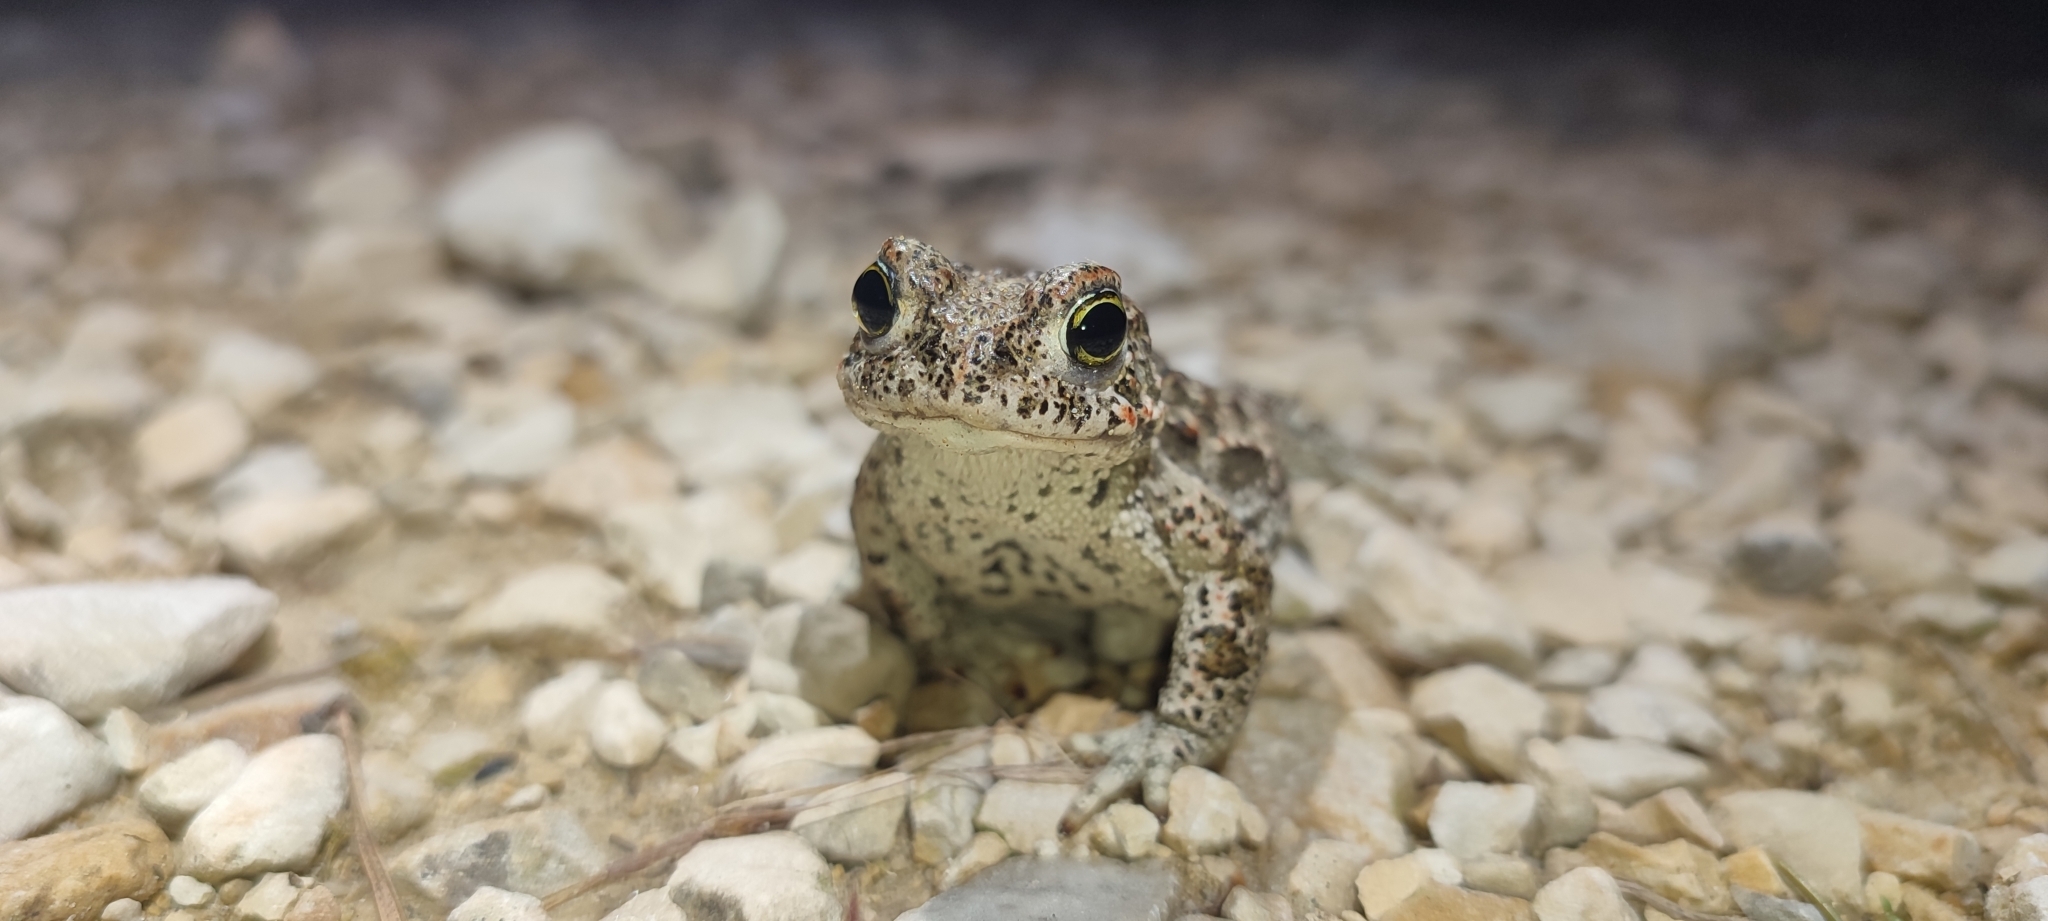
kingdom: Animalia
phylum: Chordata
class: Amphibia
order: Anura
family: Bufonidae
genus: Epidalea
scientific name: Epidalea calamita
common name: Natterjack toad
